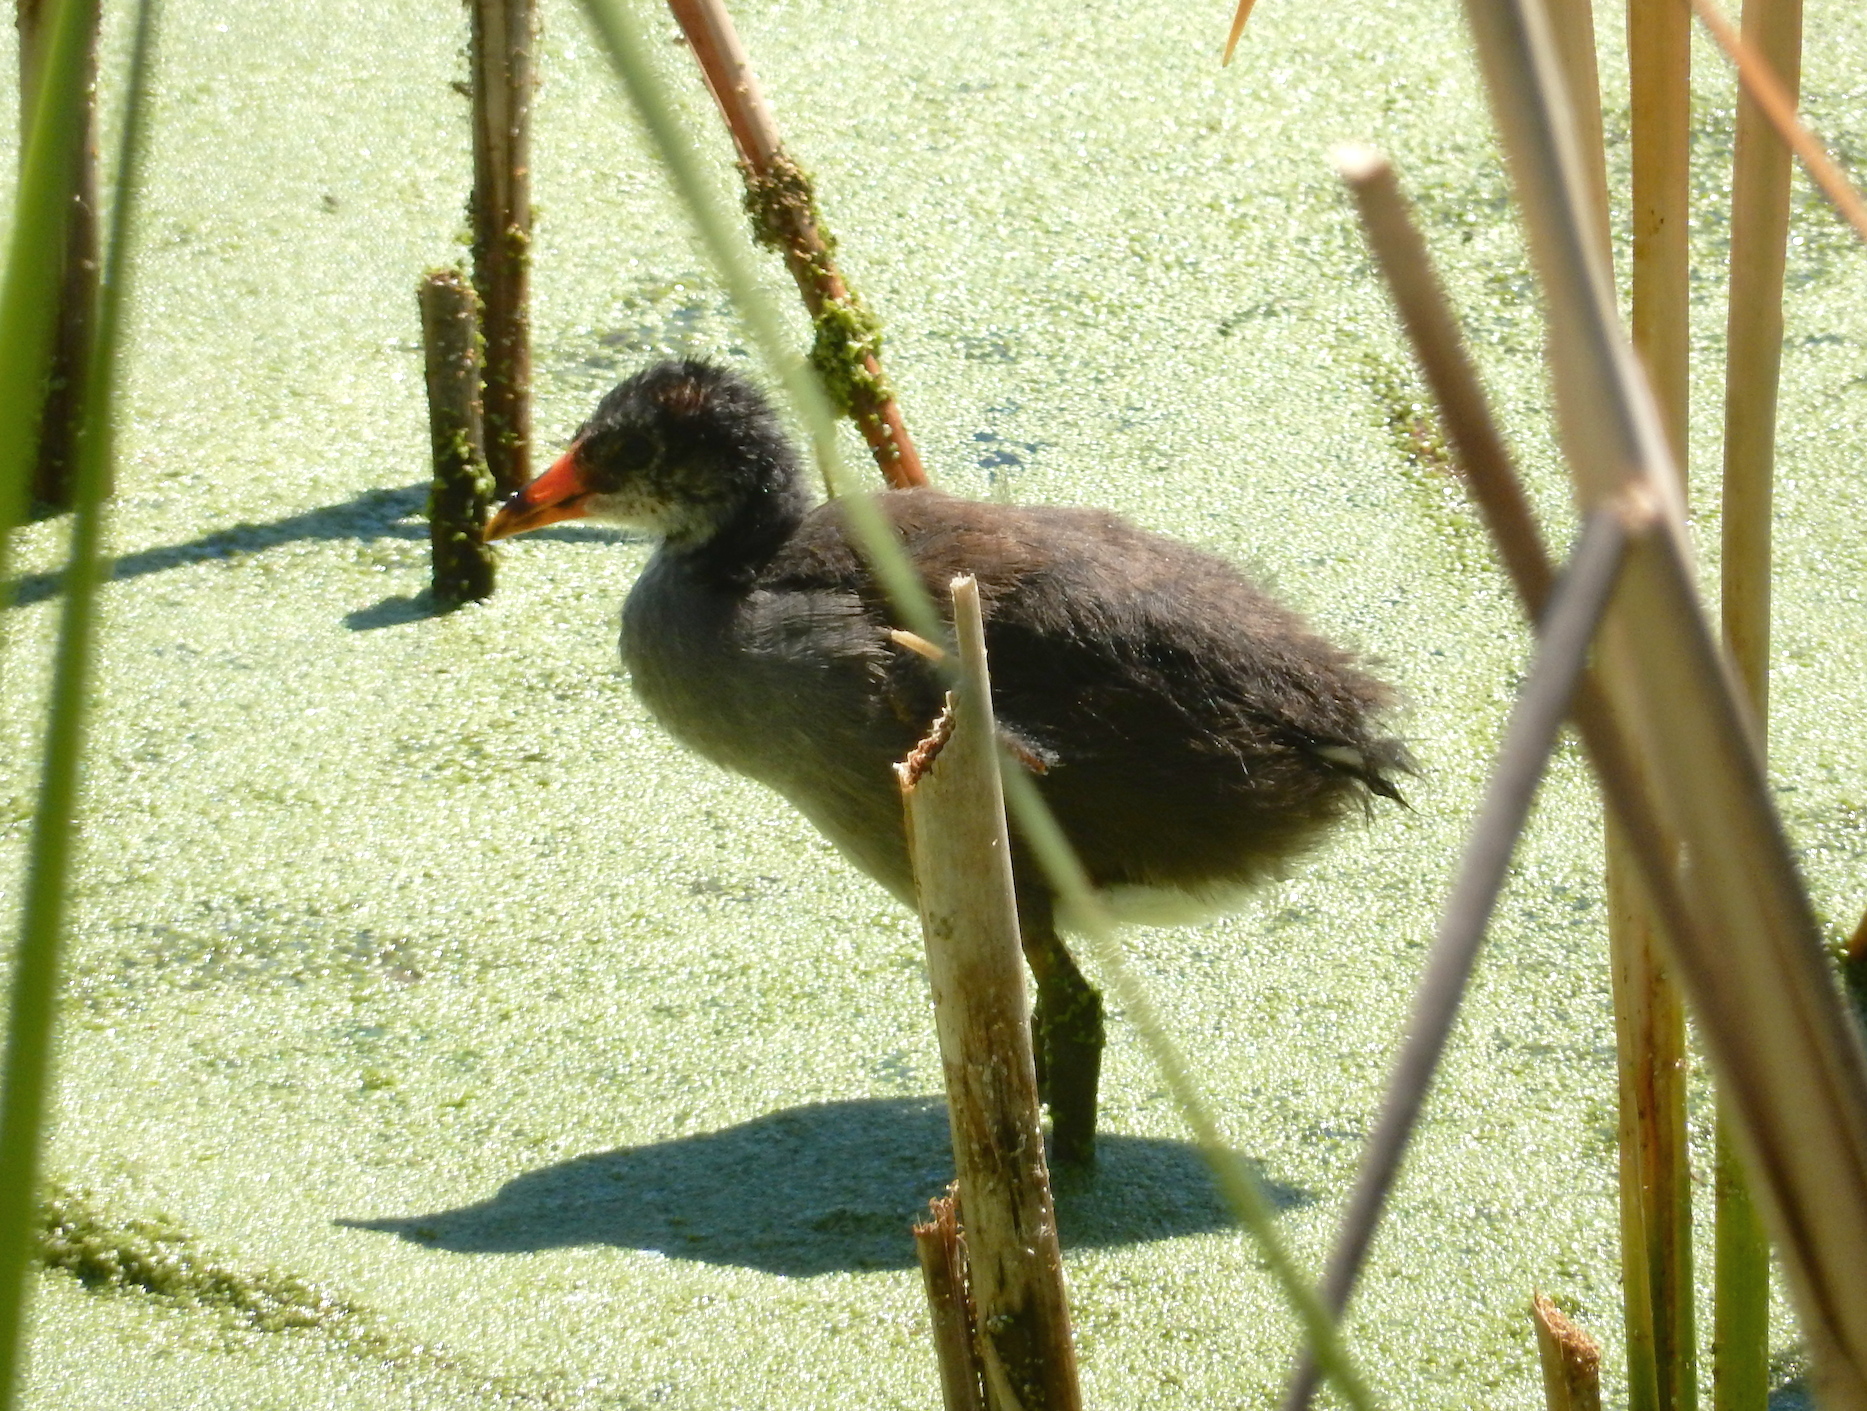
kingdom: Animalia
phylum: Chordata
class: Aves
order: Gruiformes
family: Rallidae
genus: Gallinula
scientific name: Gallinula chloropus
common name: Common moorhen
